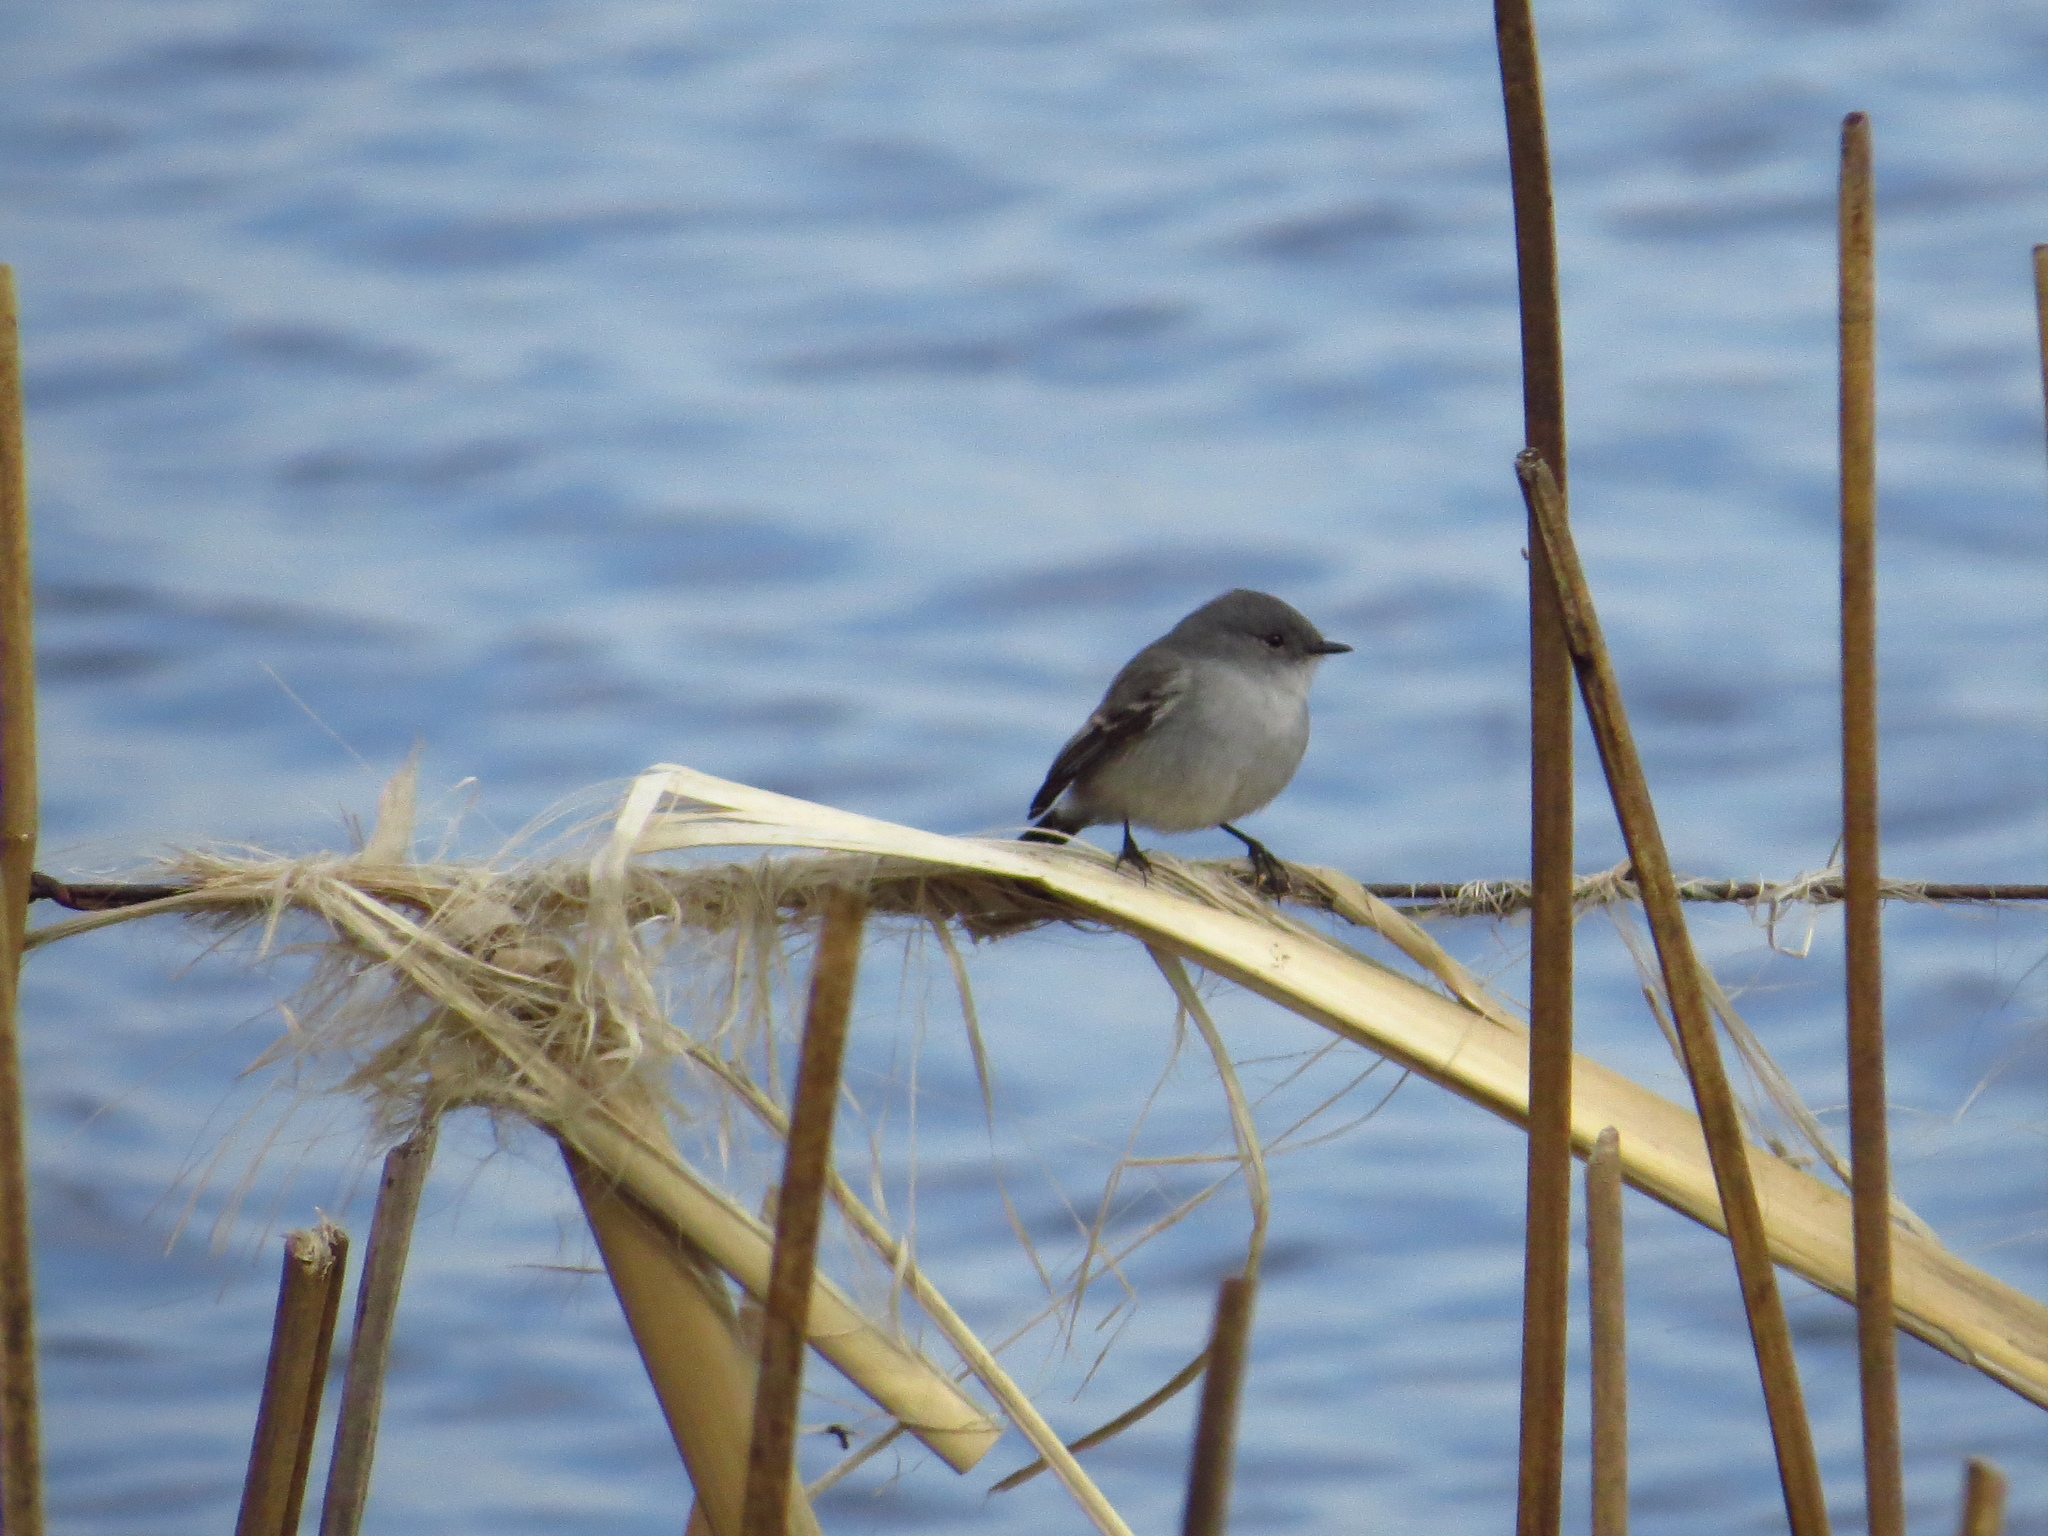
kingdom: Animalia
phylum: Chordata
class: Aves
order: Passeriformes
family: Tyrannidae
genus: Serpophaga
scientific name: Serpophaga nigricans
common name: Sooty tyrannulet
